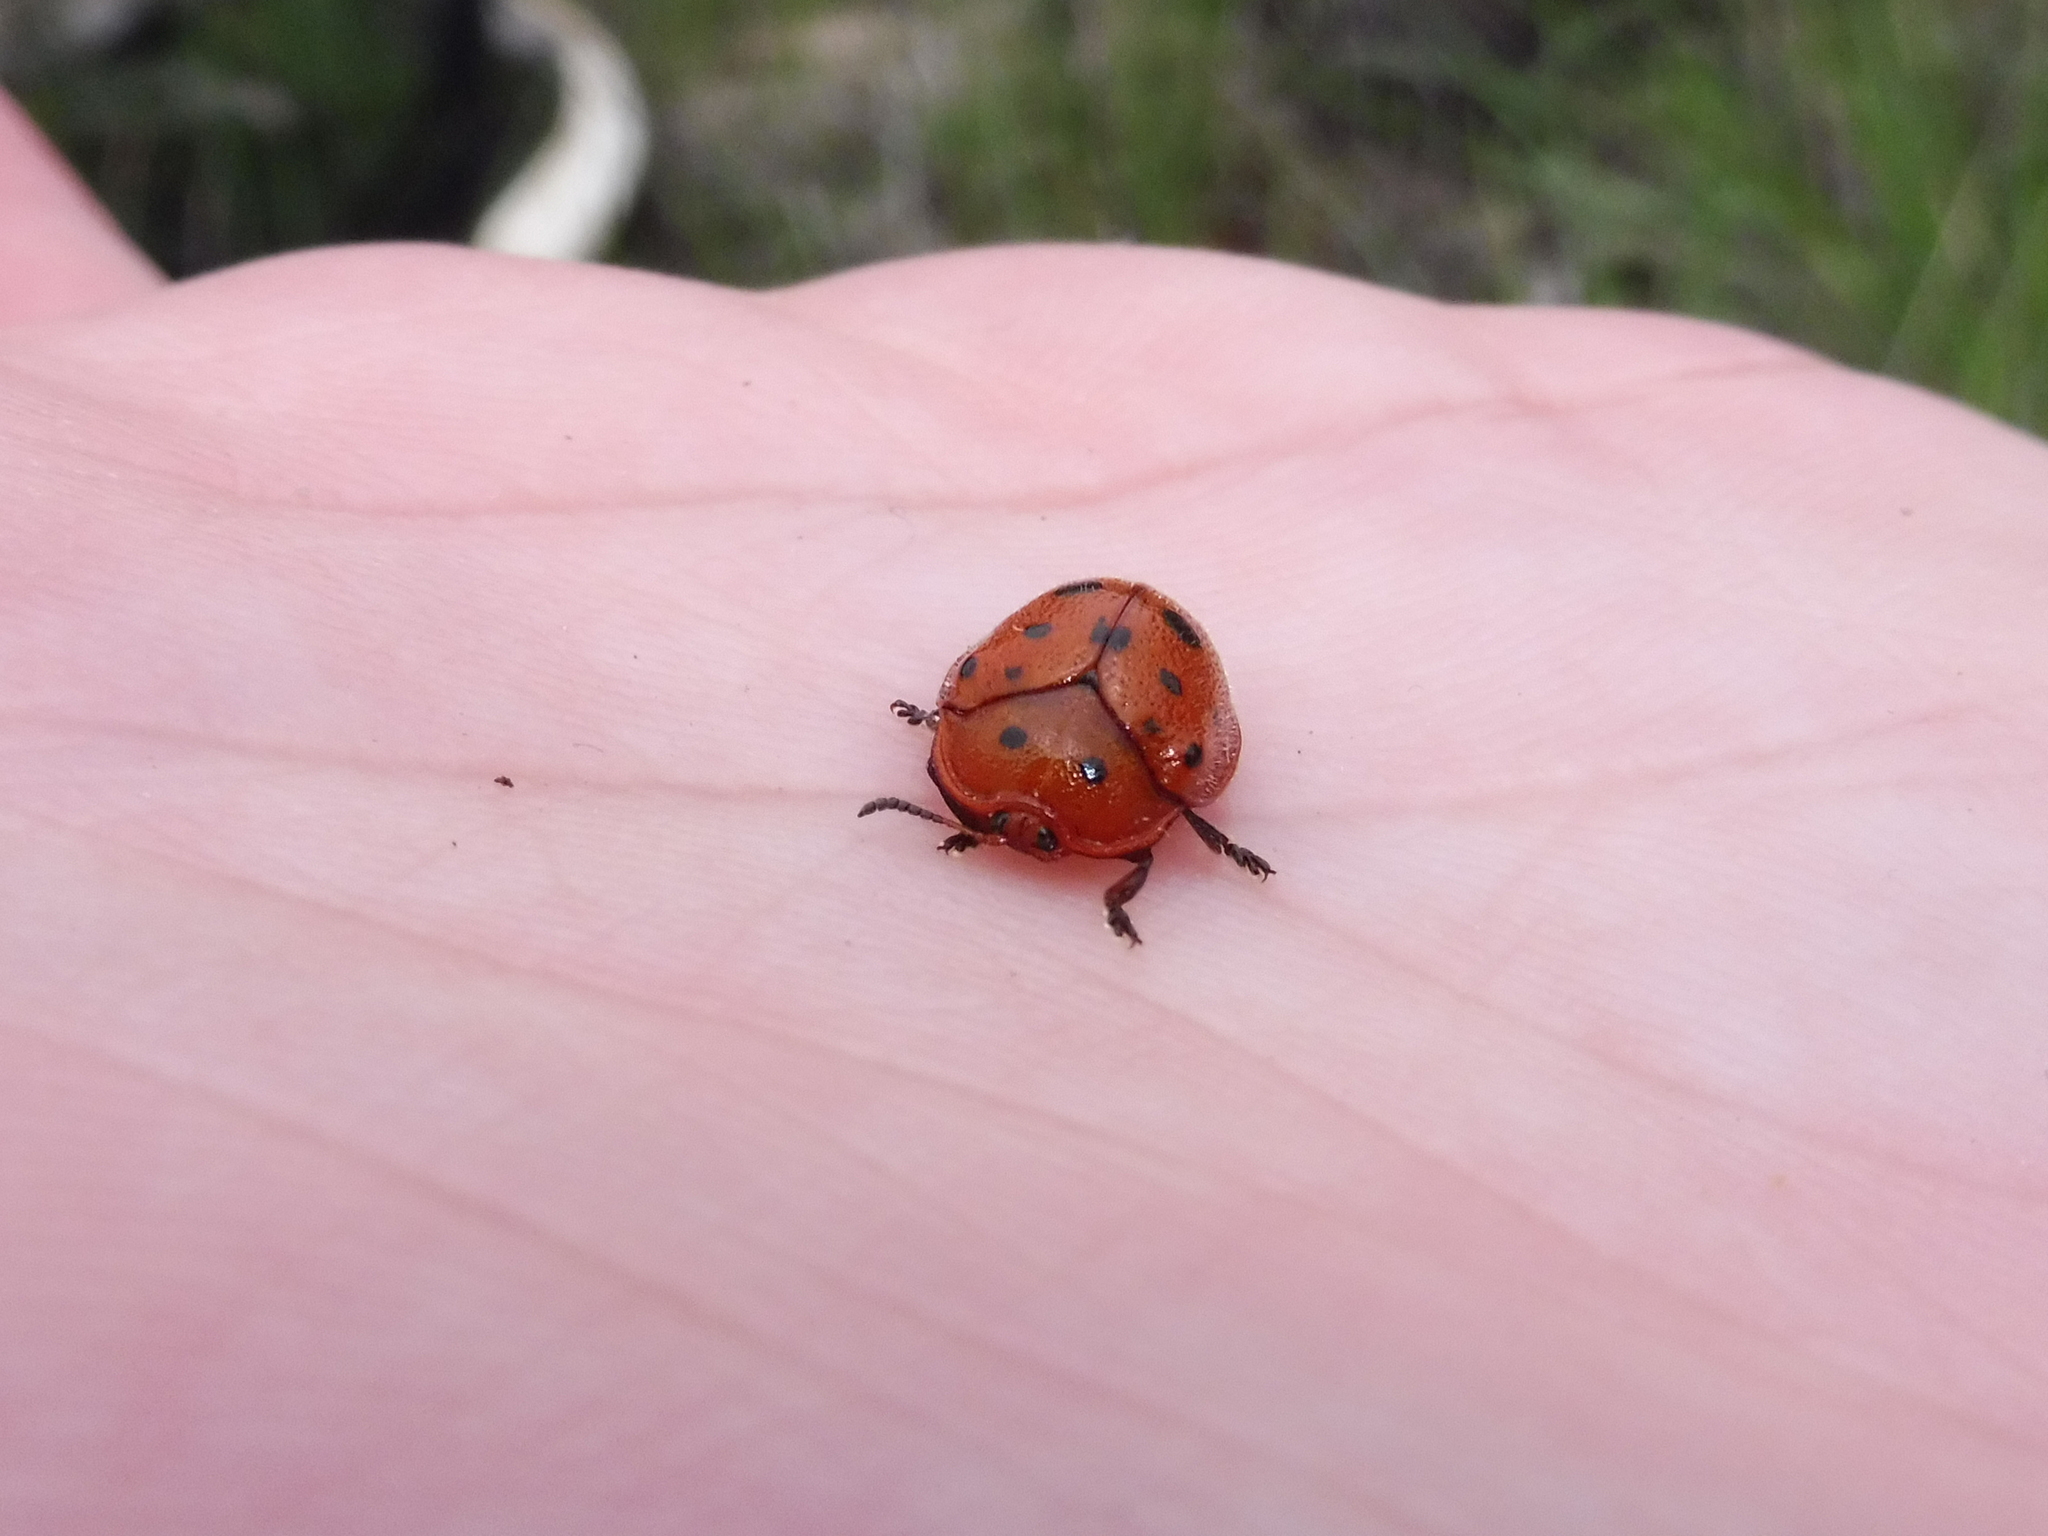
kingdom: Animalia
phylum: Arthropoda
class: Insecta
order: Coleoptera
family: Chrysomelidae
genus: Chelymorpha
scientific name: Chelymorpha phytophagica
